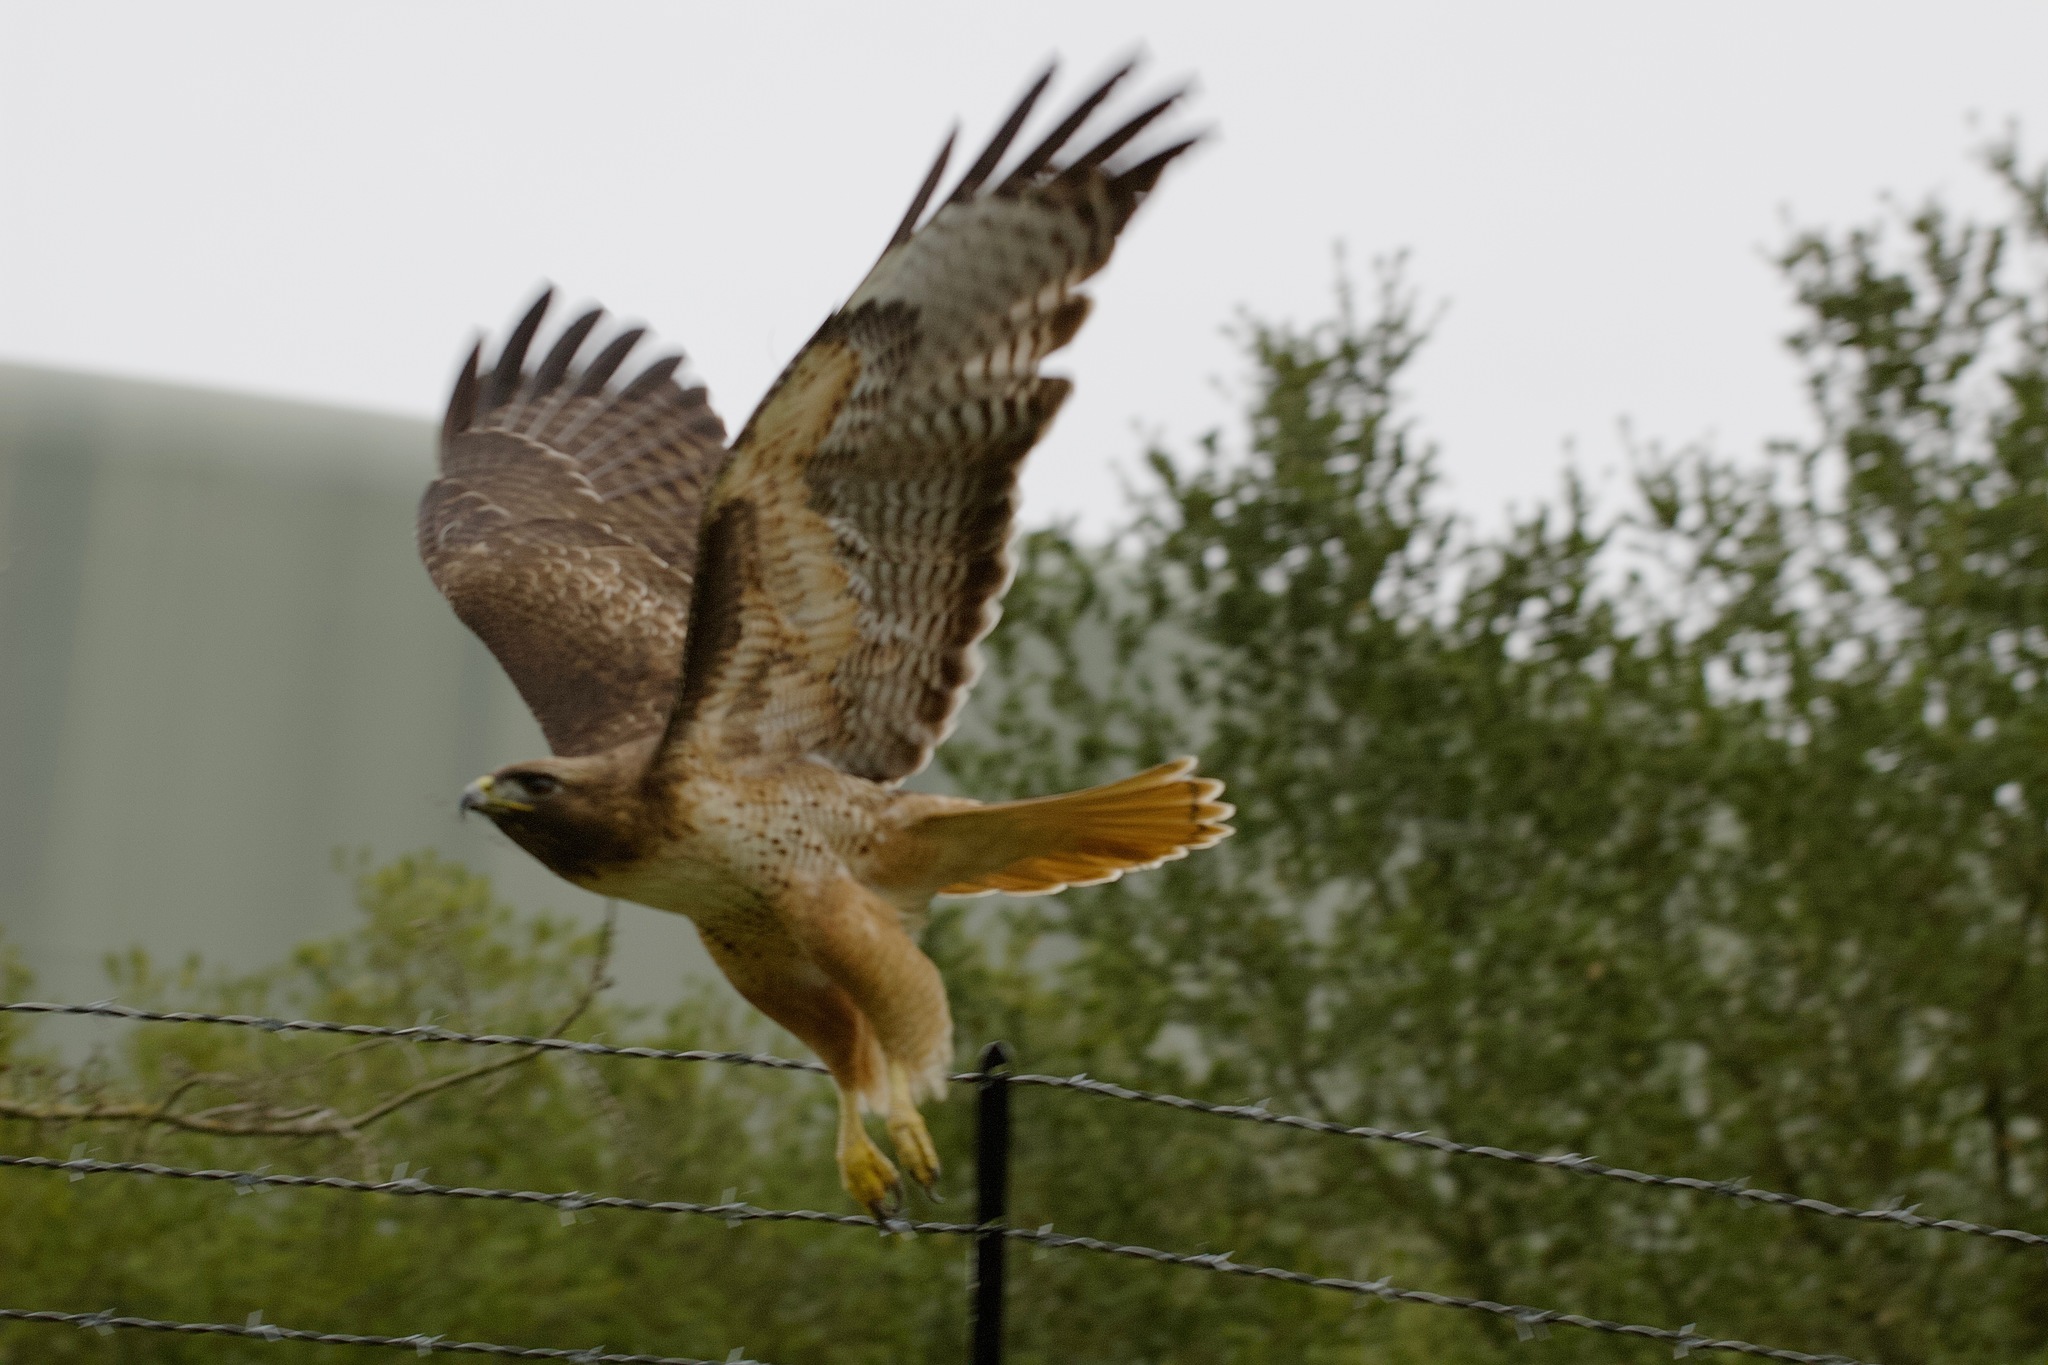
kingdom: Animalia
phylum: Chordata
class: Aves
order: Accipitriformes
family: Accipitridae
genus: Buteo
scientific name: Buteo jamaicensis
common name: Red-tailed hawk
